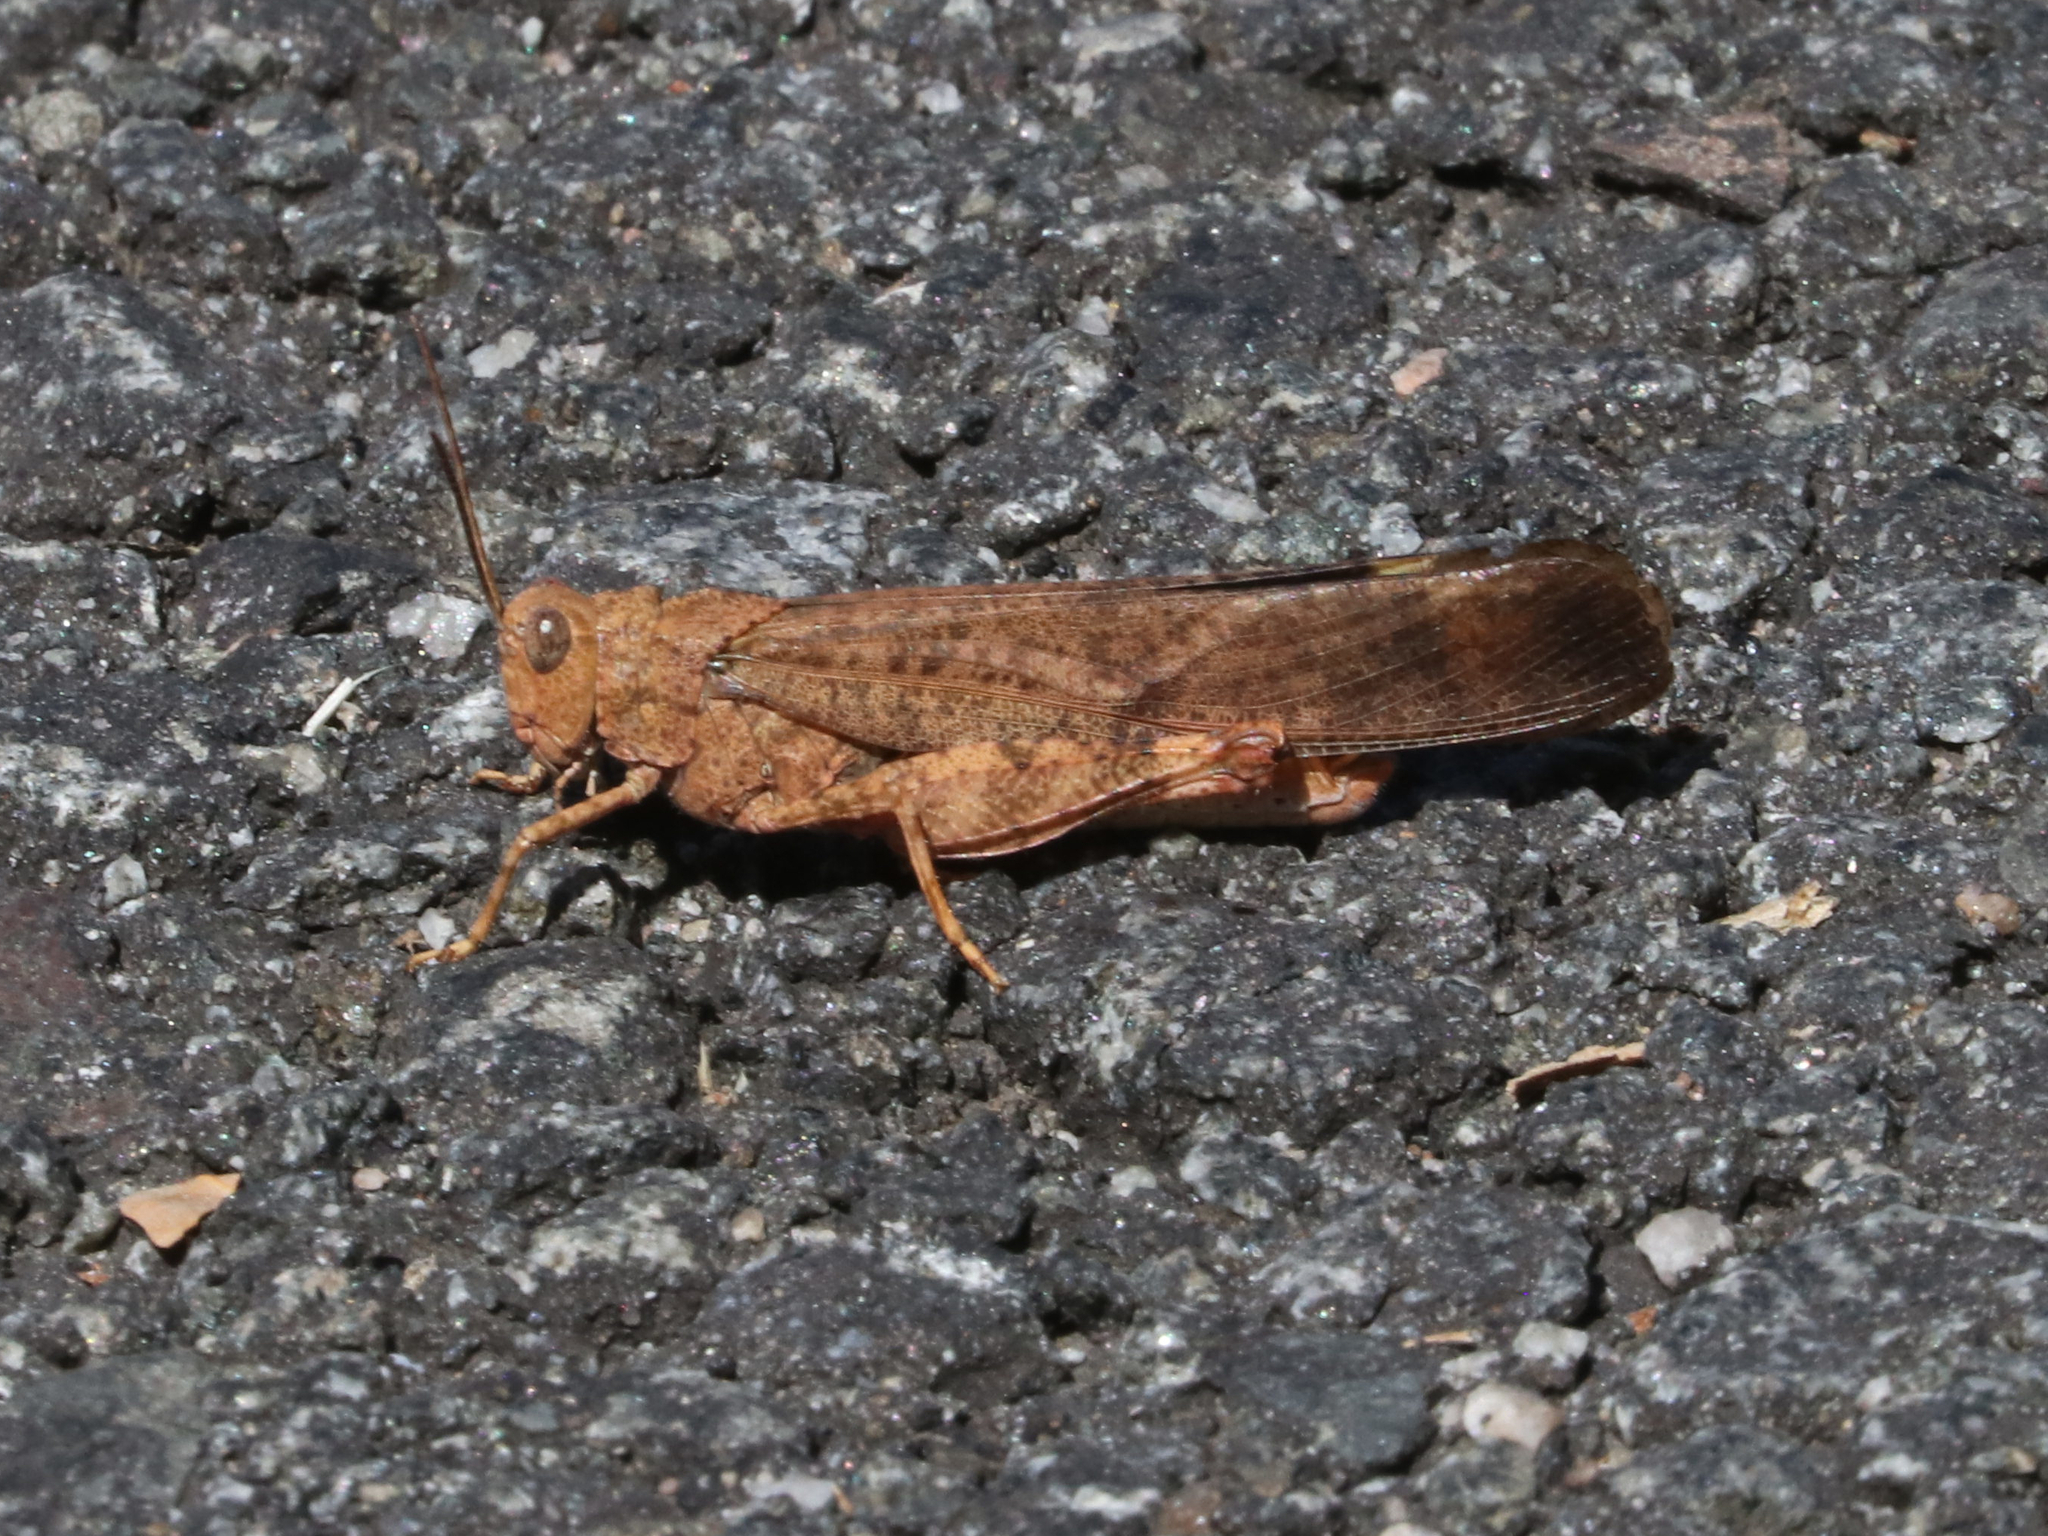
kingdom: Animalia
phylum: Arthropoda
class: Insecta
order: Orthoptera
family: Acrididae
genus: Dissosteira
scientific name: Dissosteira carolina
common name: Carolina grasshopper
